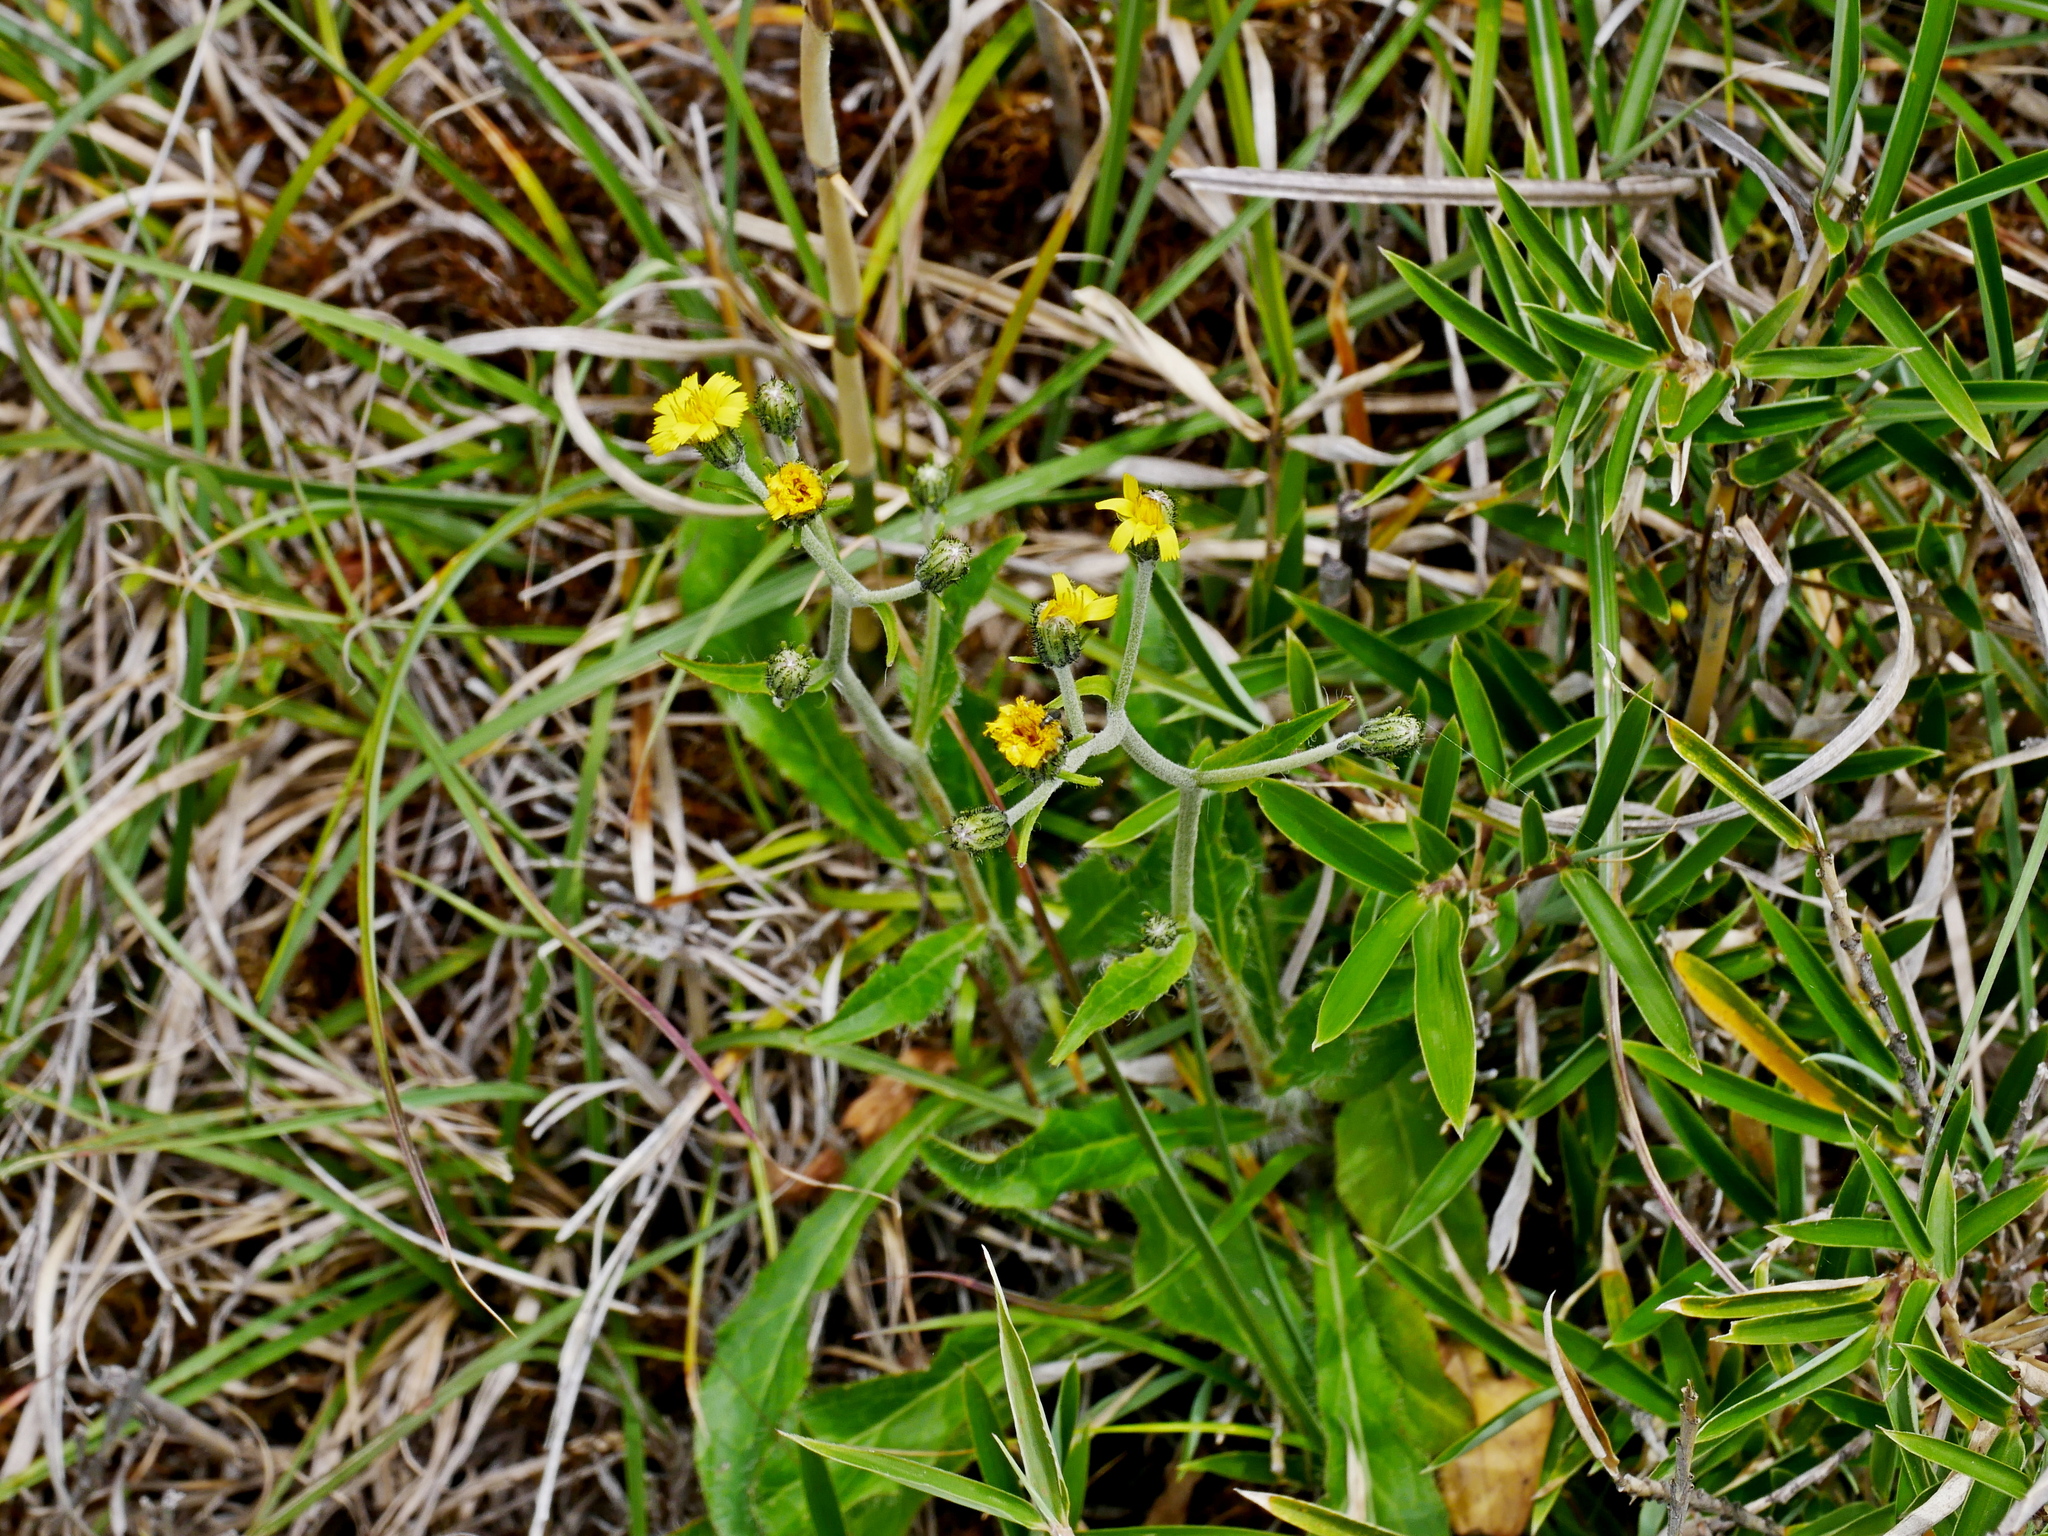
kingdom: Plantae
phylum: Tracheophyta
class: Magnoliopsida
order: Asterales
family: Asteraceae
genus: Hieracium
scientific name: Hieracium morii
